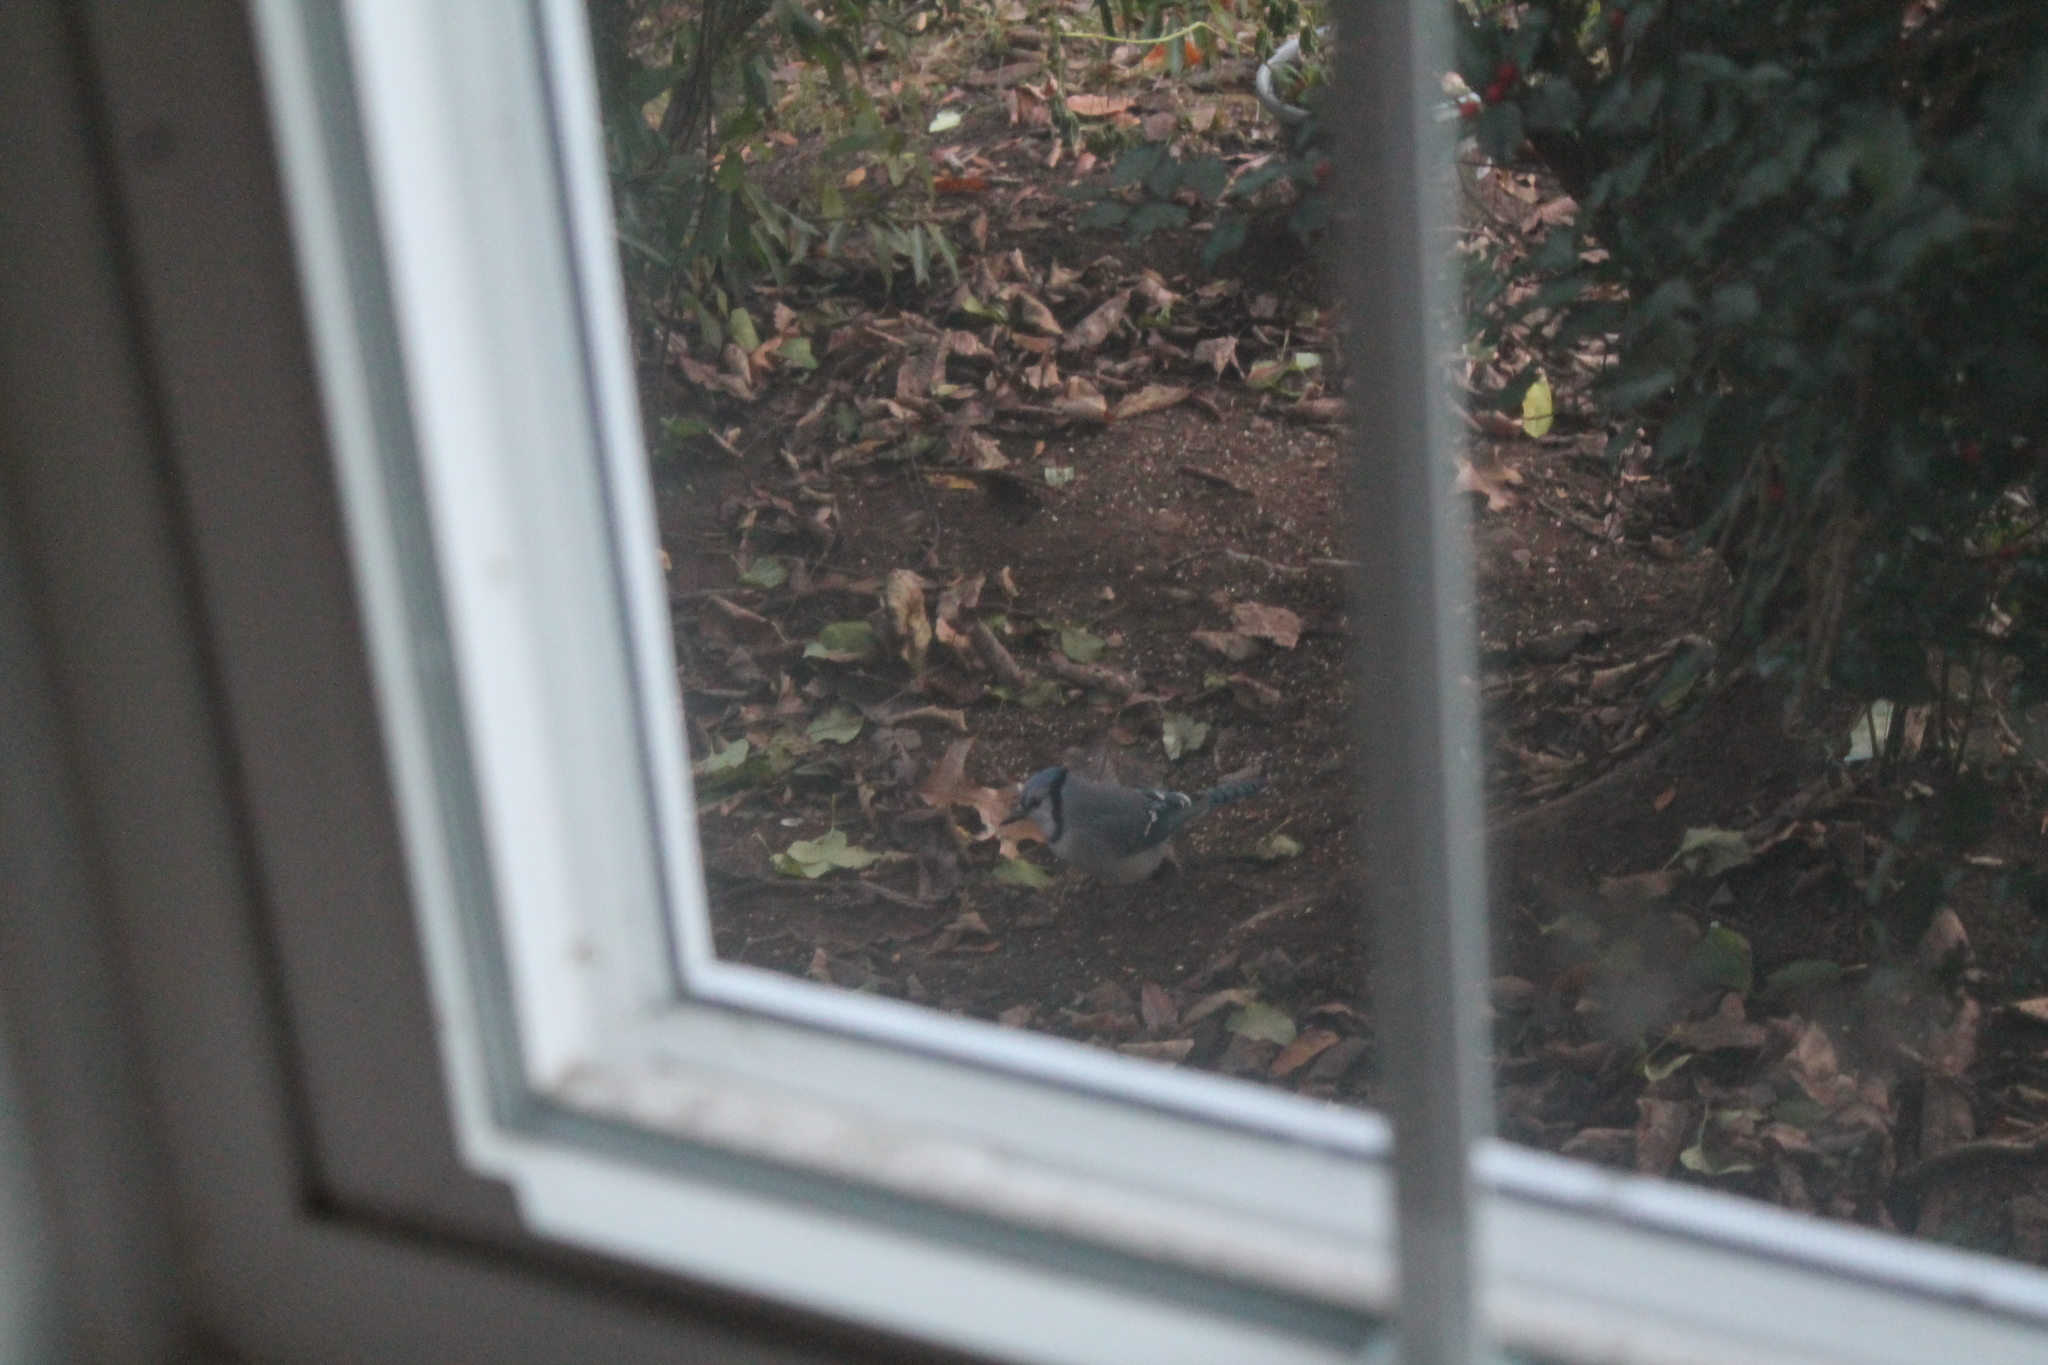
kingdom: Animalia
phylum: Chordata
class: Aves
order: Passeriformes
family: Corvidae
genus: Cyanocitta
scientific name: Cyanocitta cristata
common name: Blue jay
